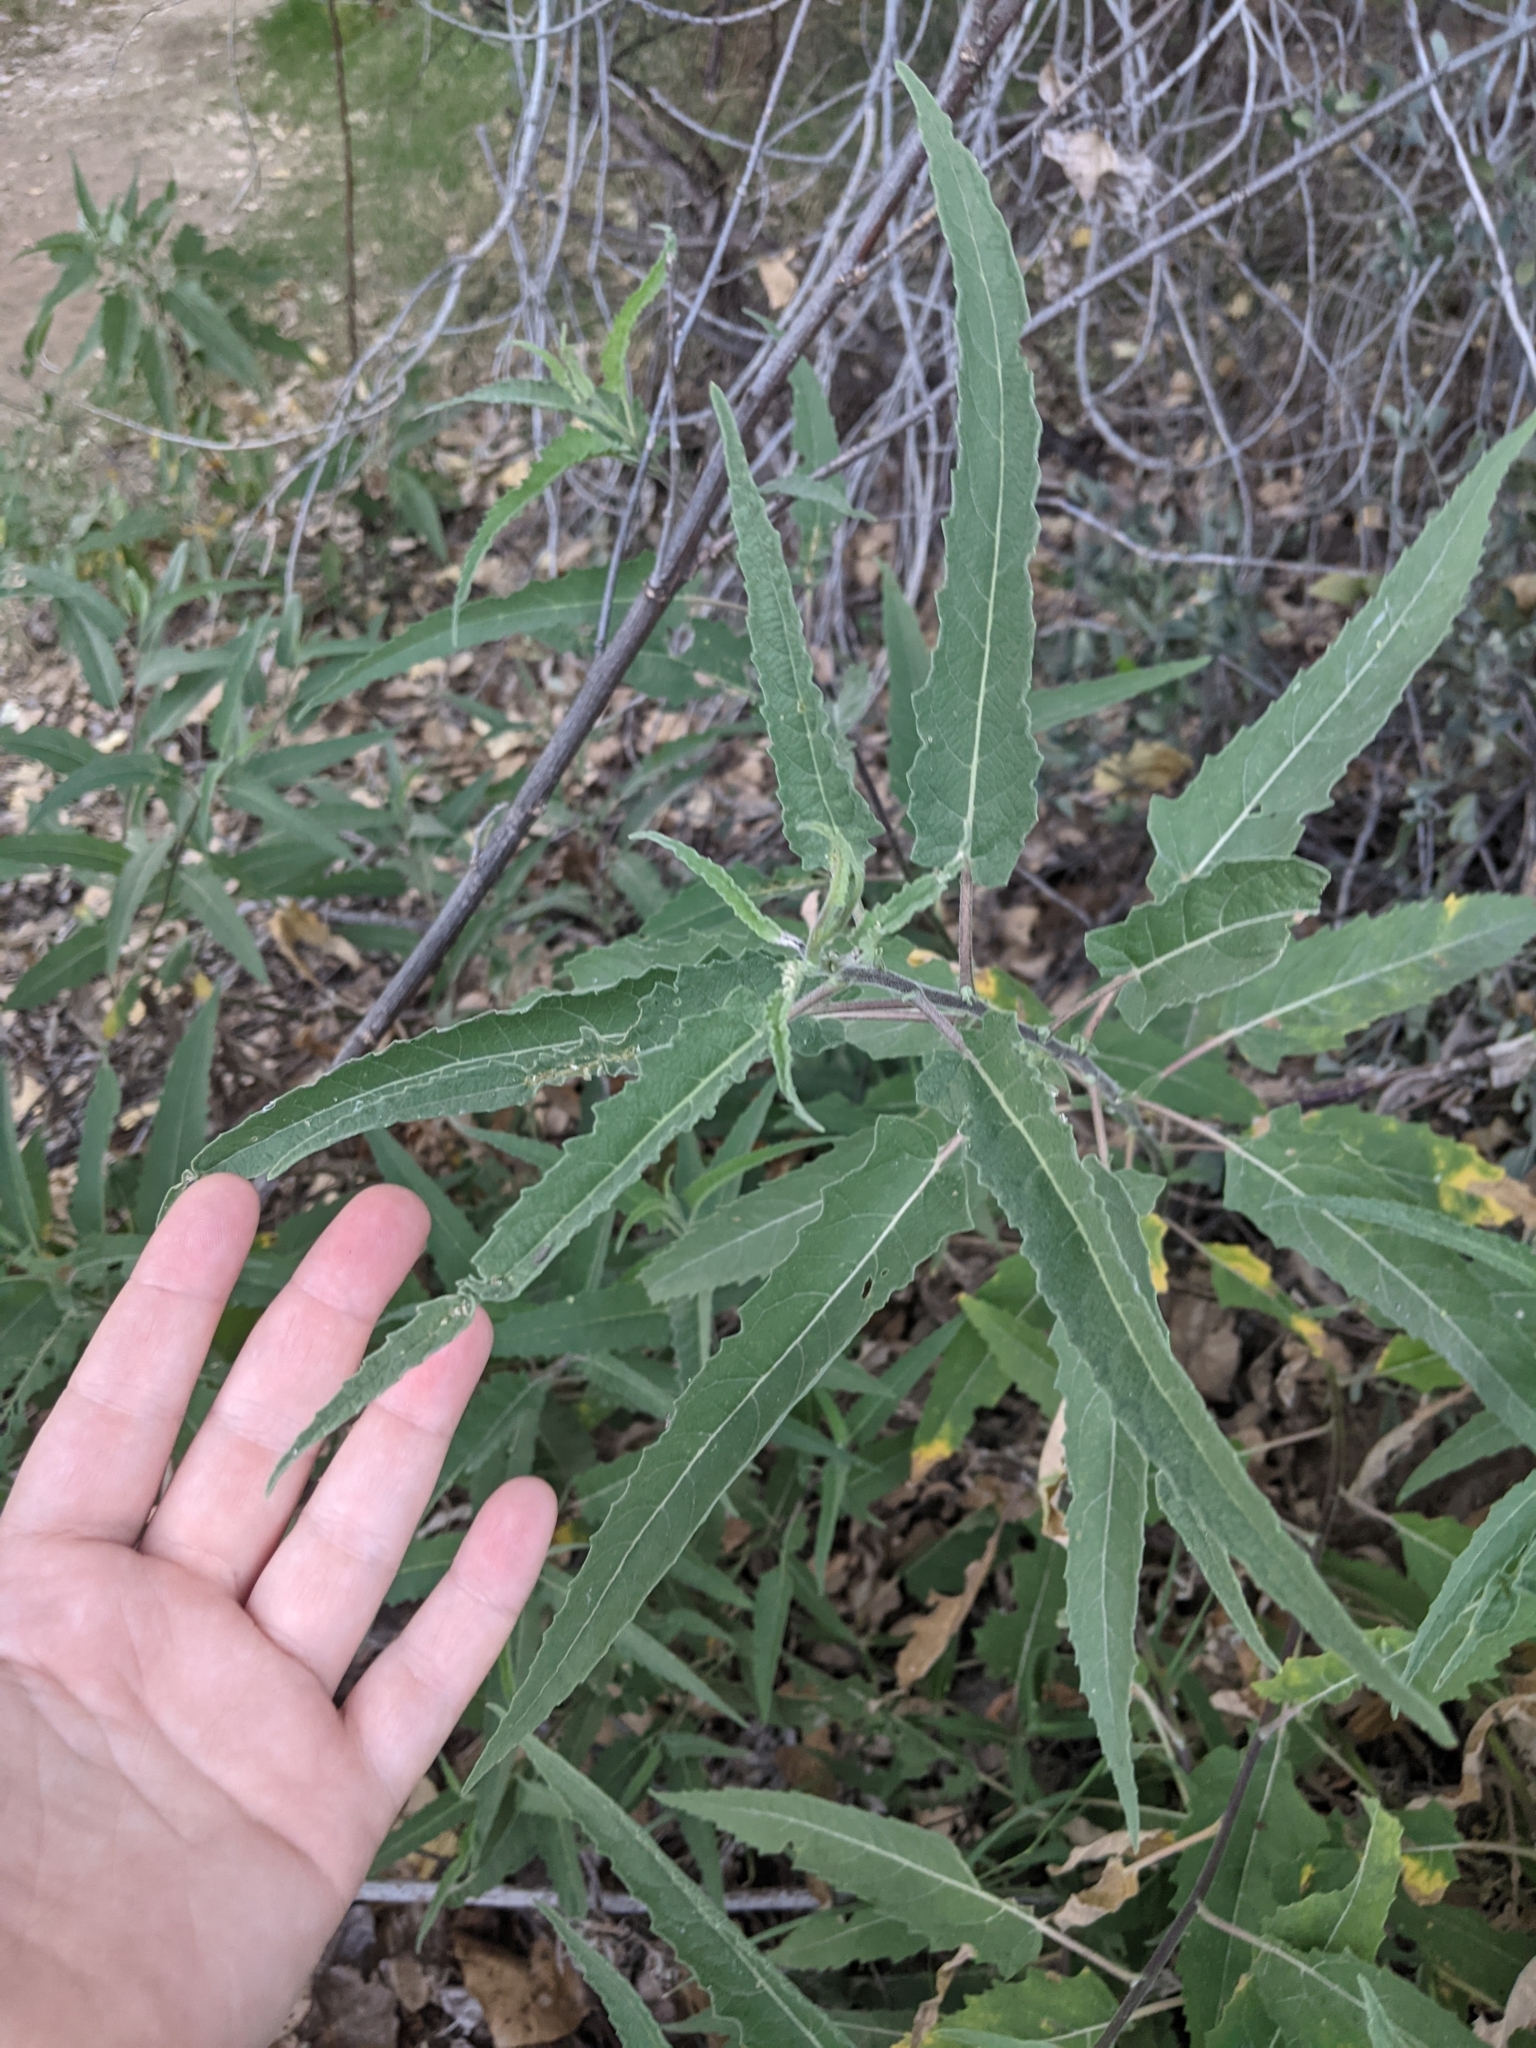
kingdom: Plantae
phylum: Tracheophyta
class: Magnoliopsida
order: Asterales
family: Asteraceae
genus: Ambrosia
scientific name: Ambrosia ambrosioides
